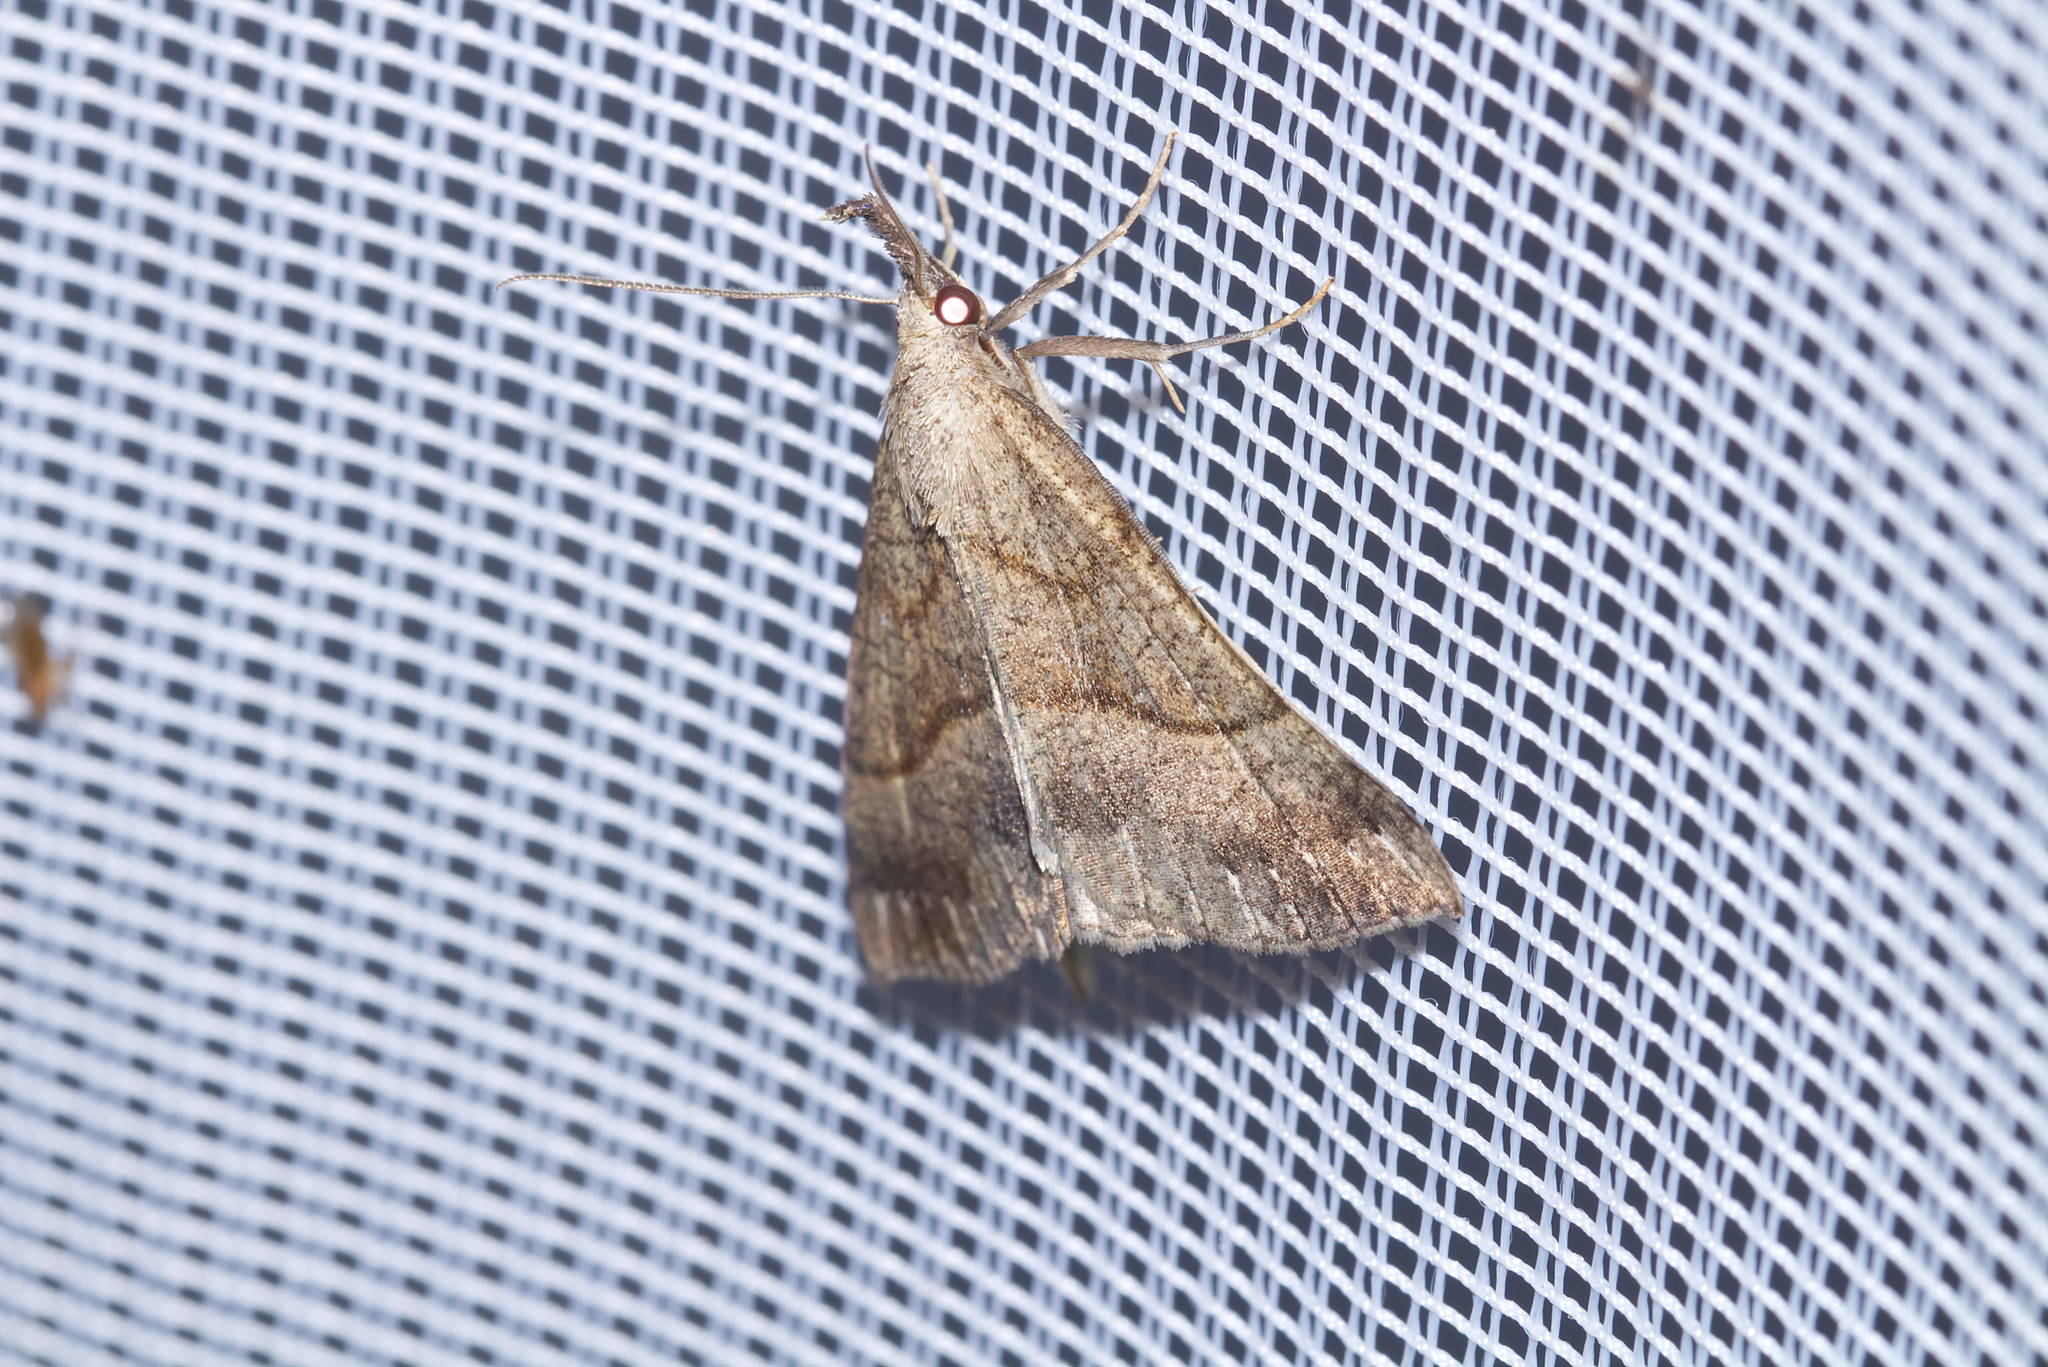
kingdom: Animalia
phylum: Arthropoda
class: Insecta
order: Lepidoptera
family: Erebidae
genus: Hypena
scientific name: Hypena proboscidalis
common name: Snout
